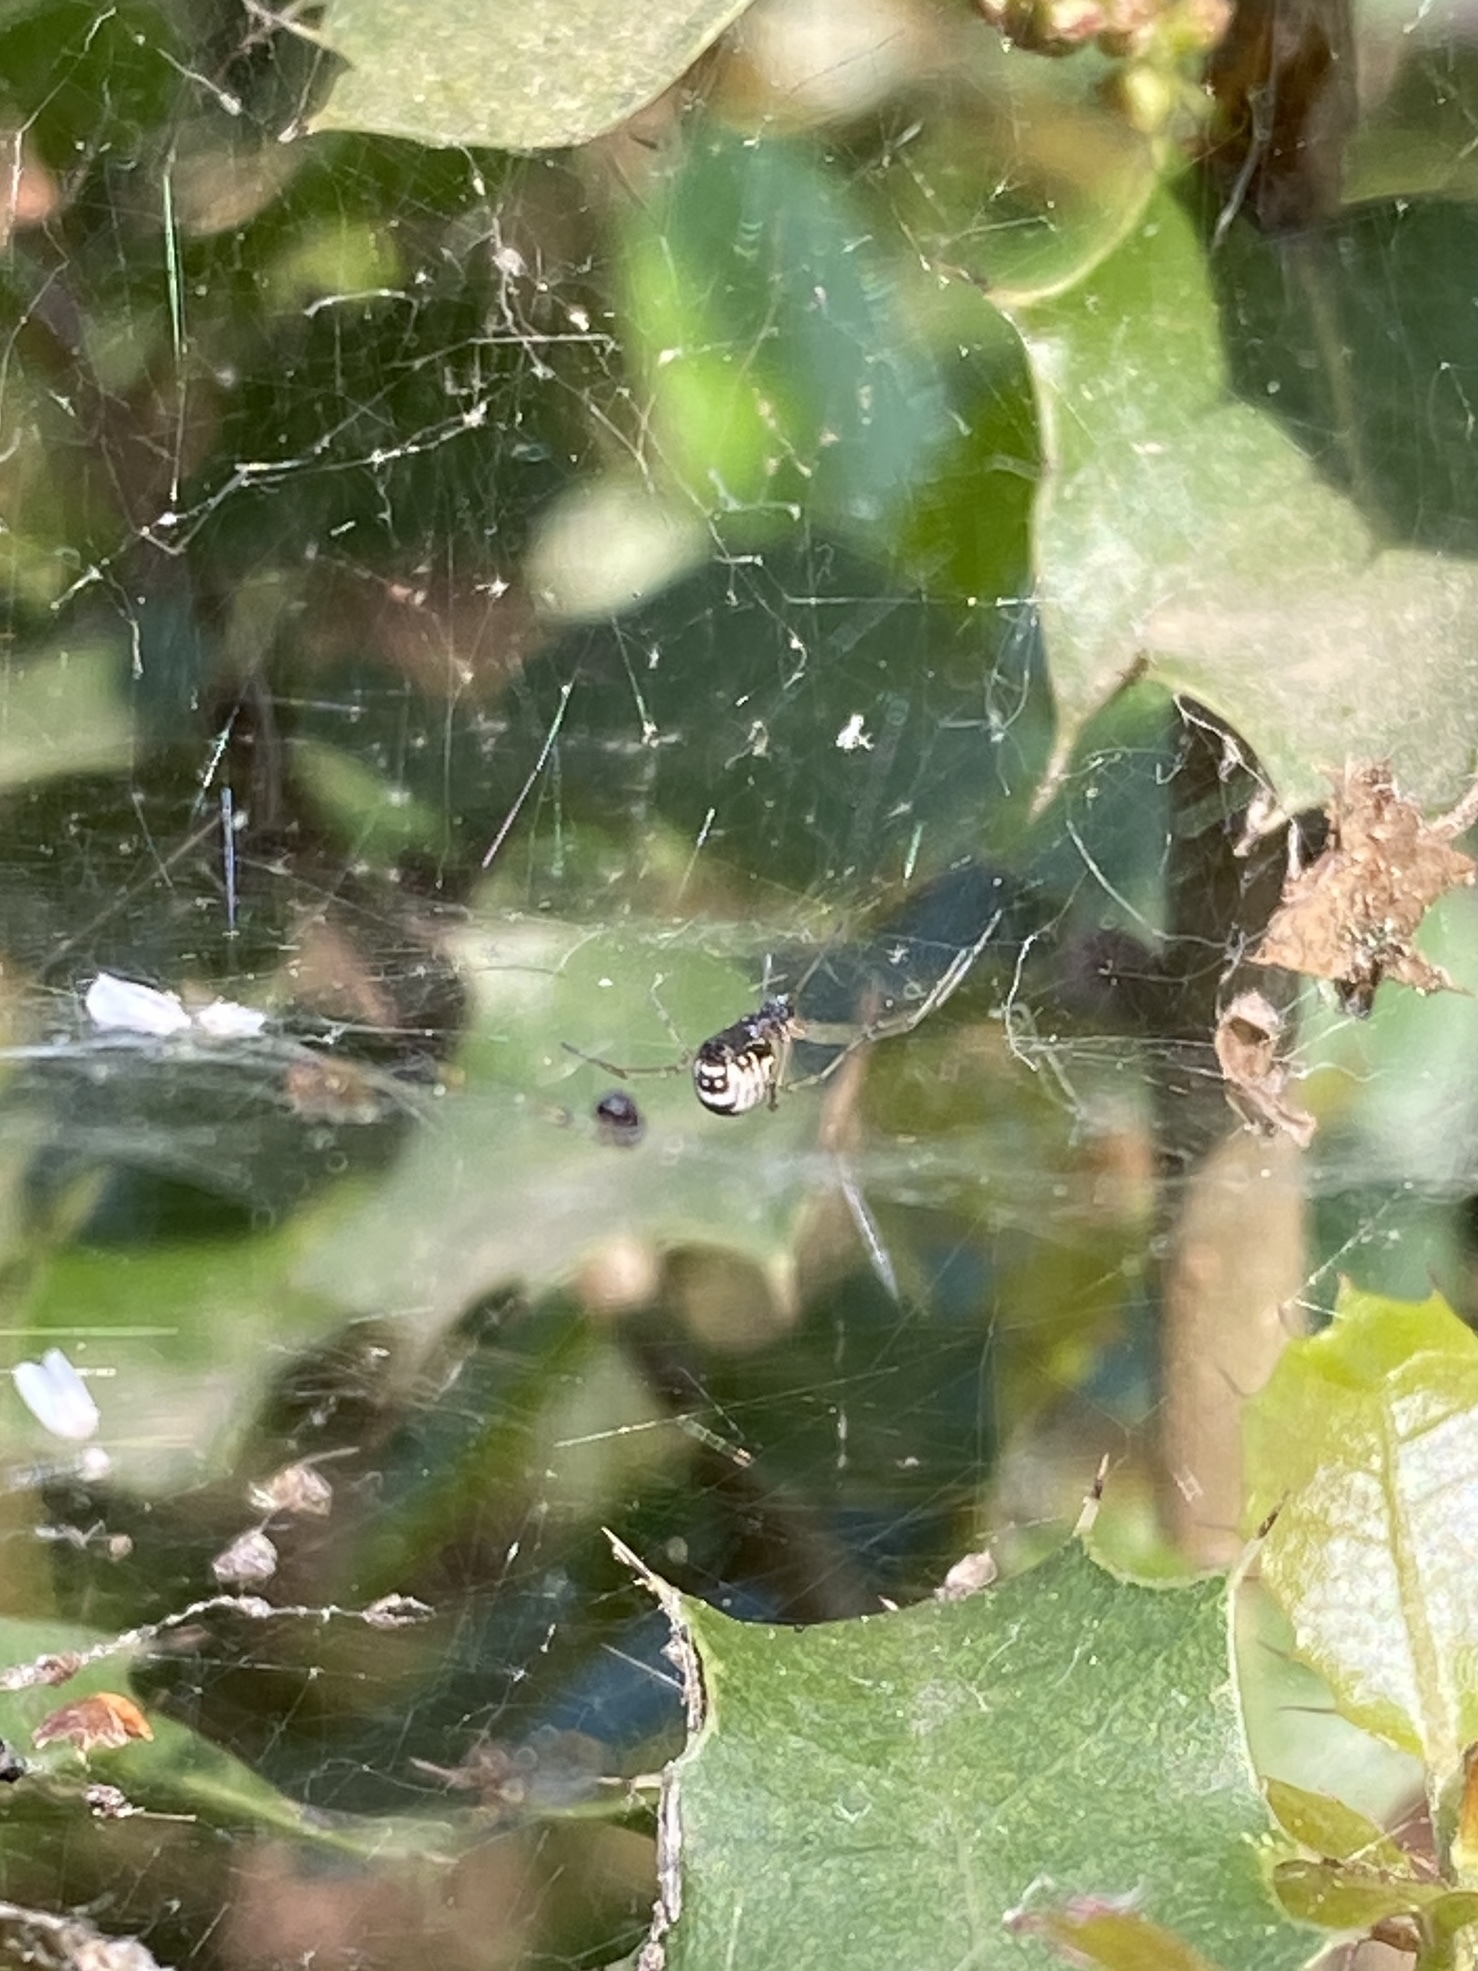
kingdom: Animalia
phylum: Arthropoda
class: Arachnida
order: Araneae
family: Linyphiidae
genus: Frontinellina
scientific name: Frontinellina frutetorum
